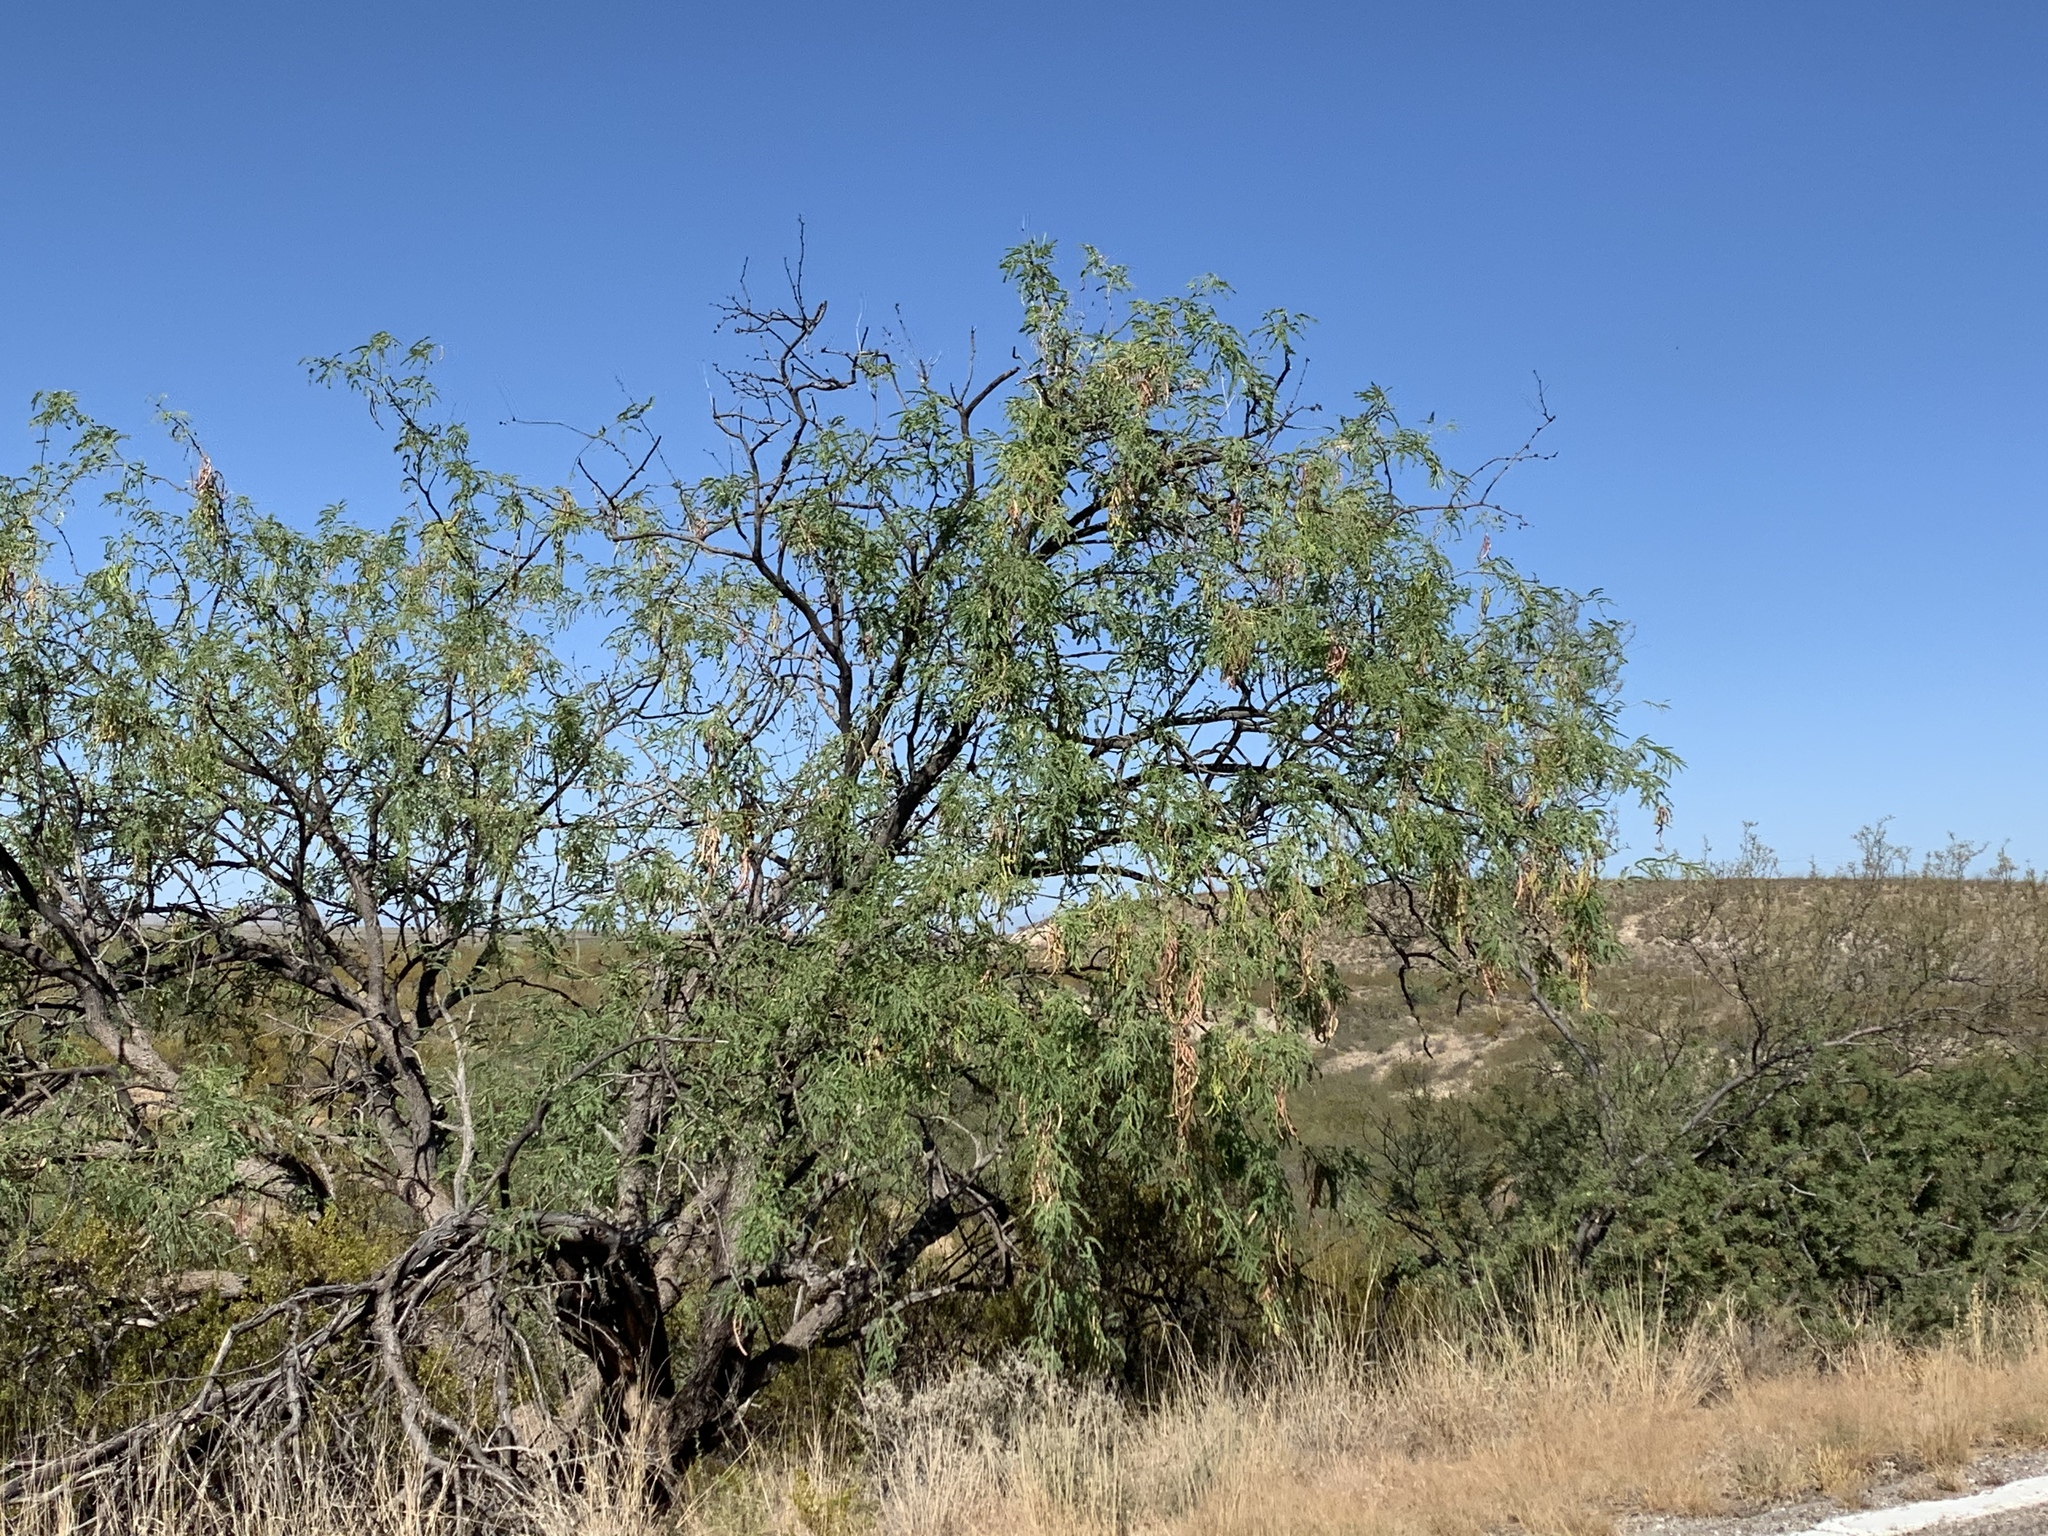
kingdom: Plantae
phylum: Tracheophyta
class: Magnoliopsida
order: Fabales
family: Fabaceae
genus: Prosopis
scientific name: Prosopis velutina
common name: Velvet mesquite
